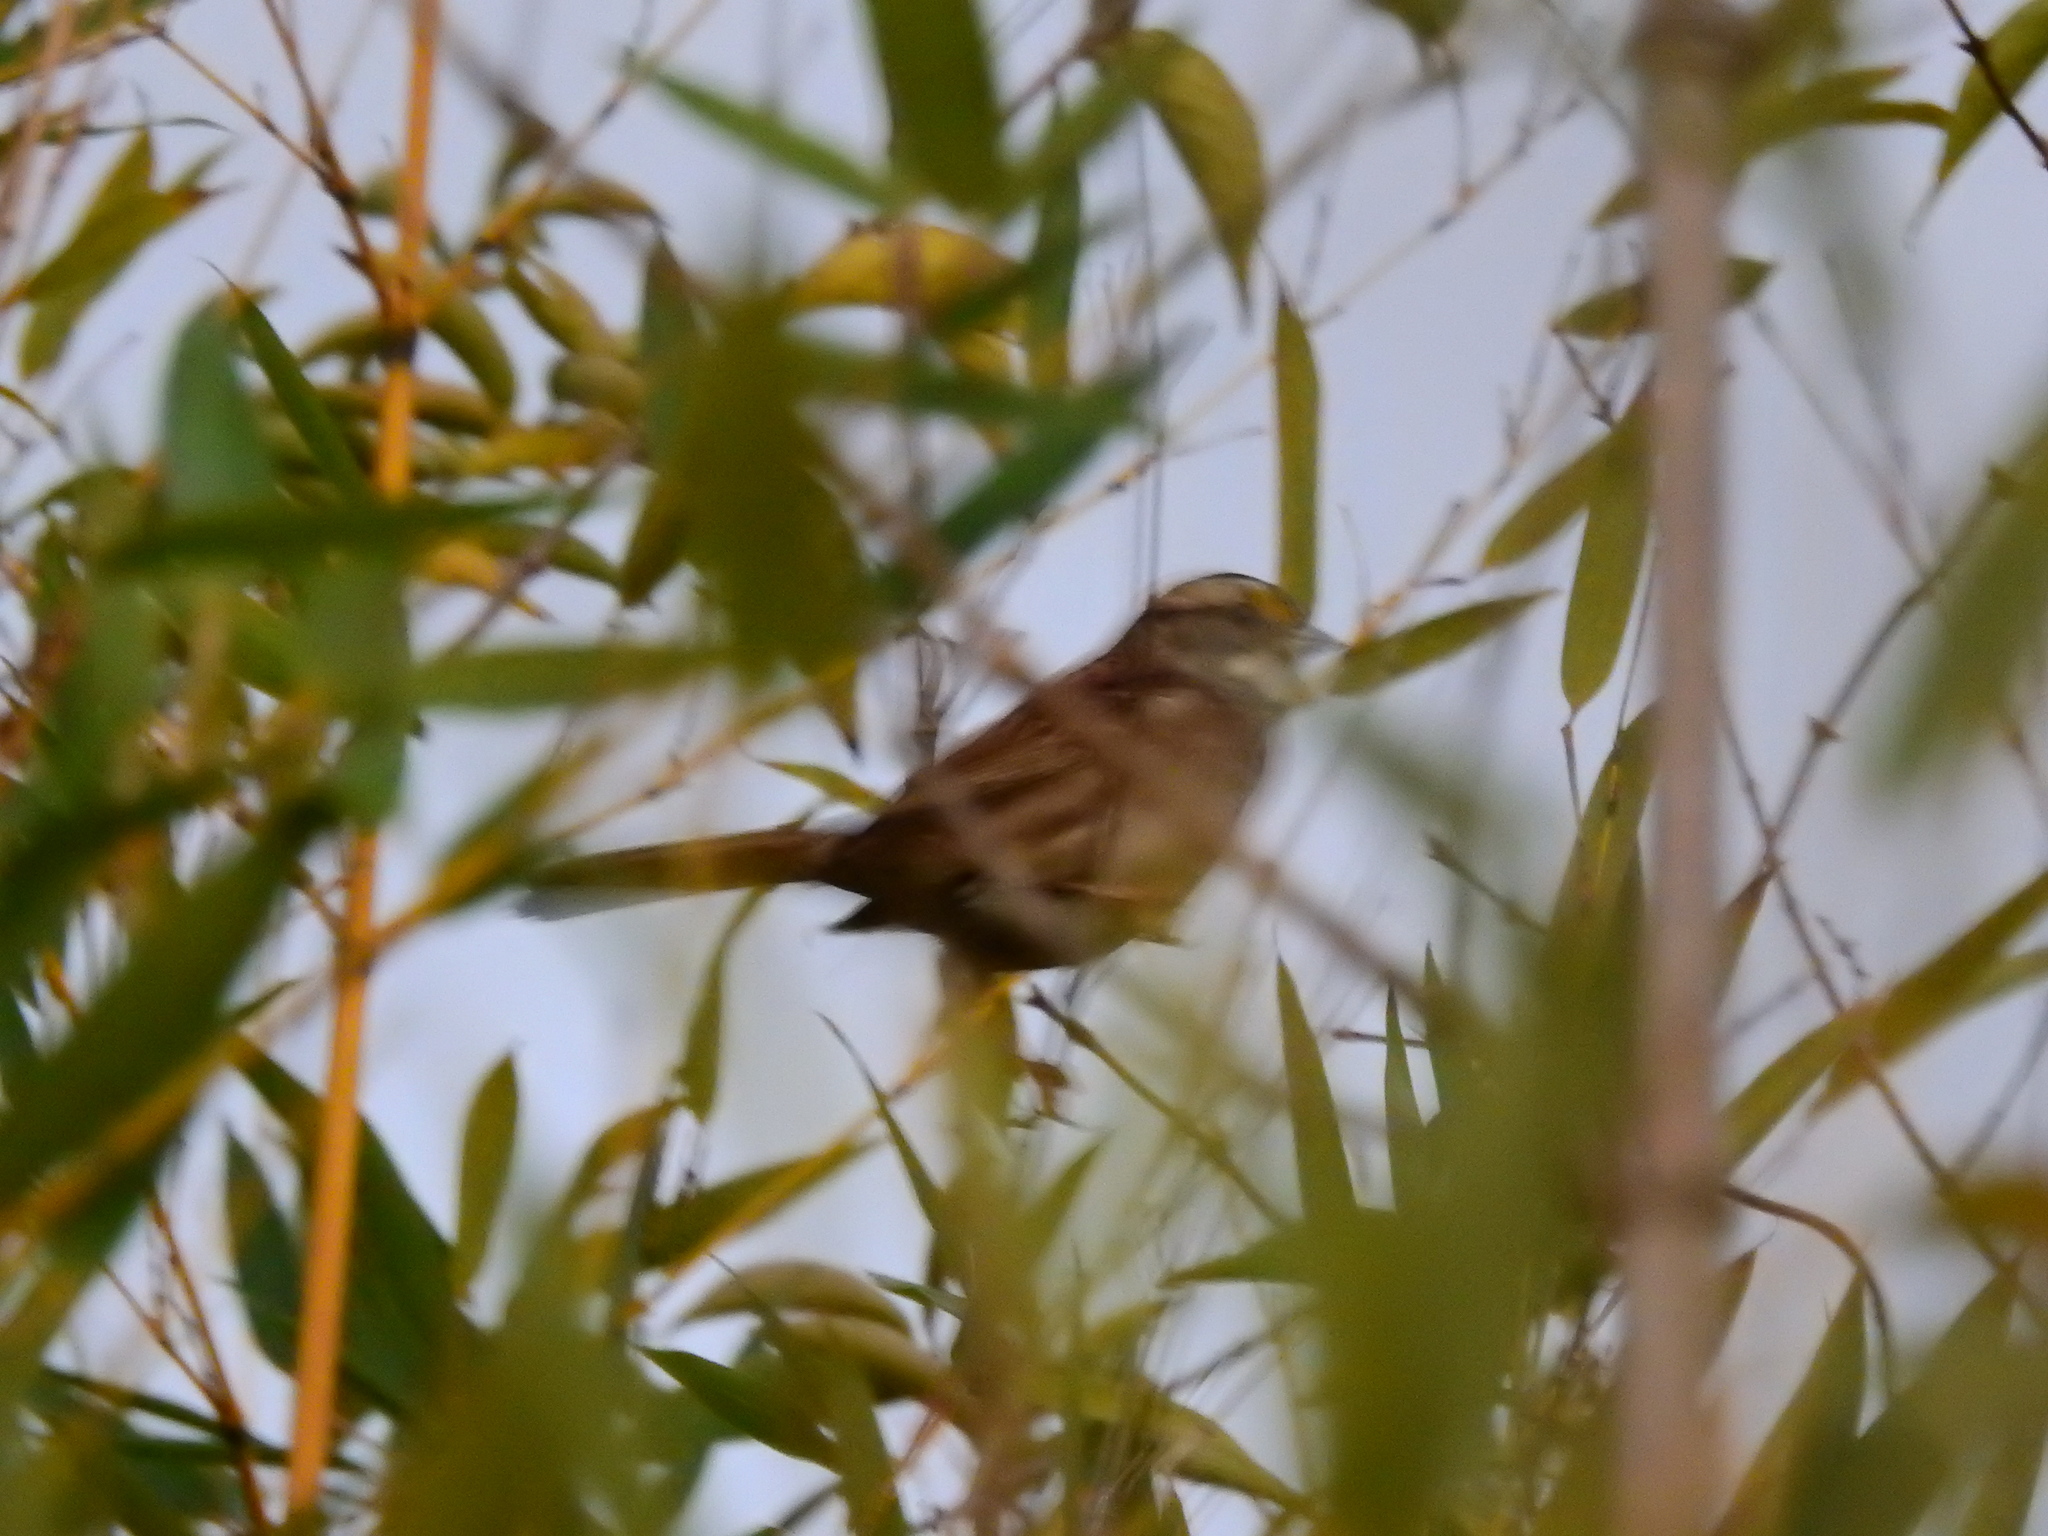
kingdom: Animalia
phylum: Chordata
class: Aves
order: Passeriformes
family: Passerellidae
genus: Zonotrichia
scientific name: Zonotrichia albicollis
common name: White-throated sparrow
